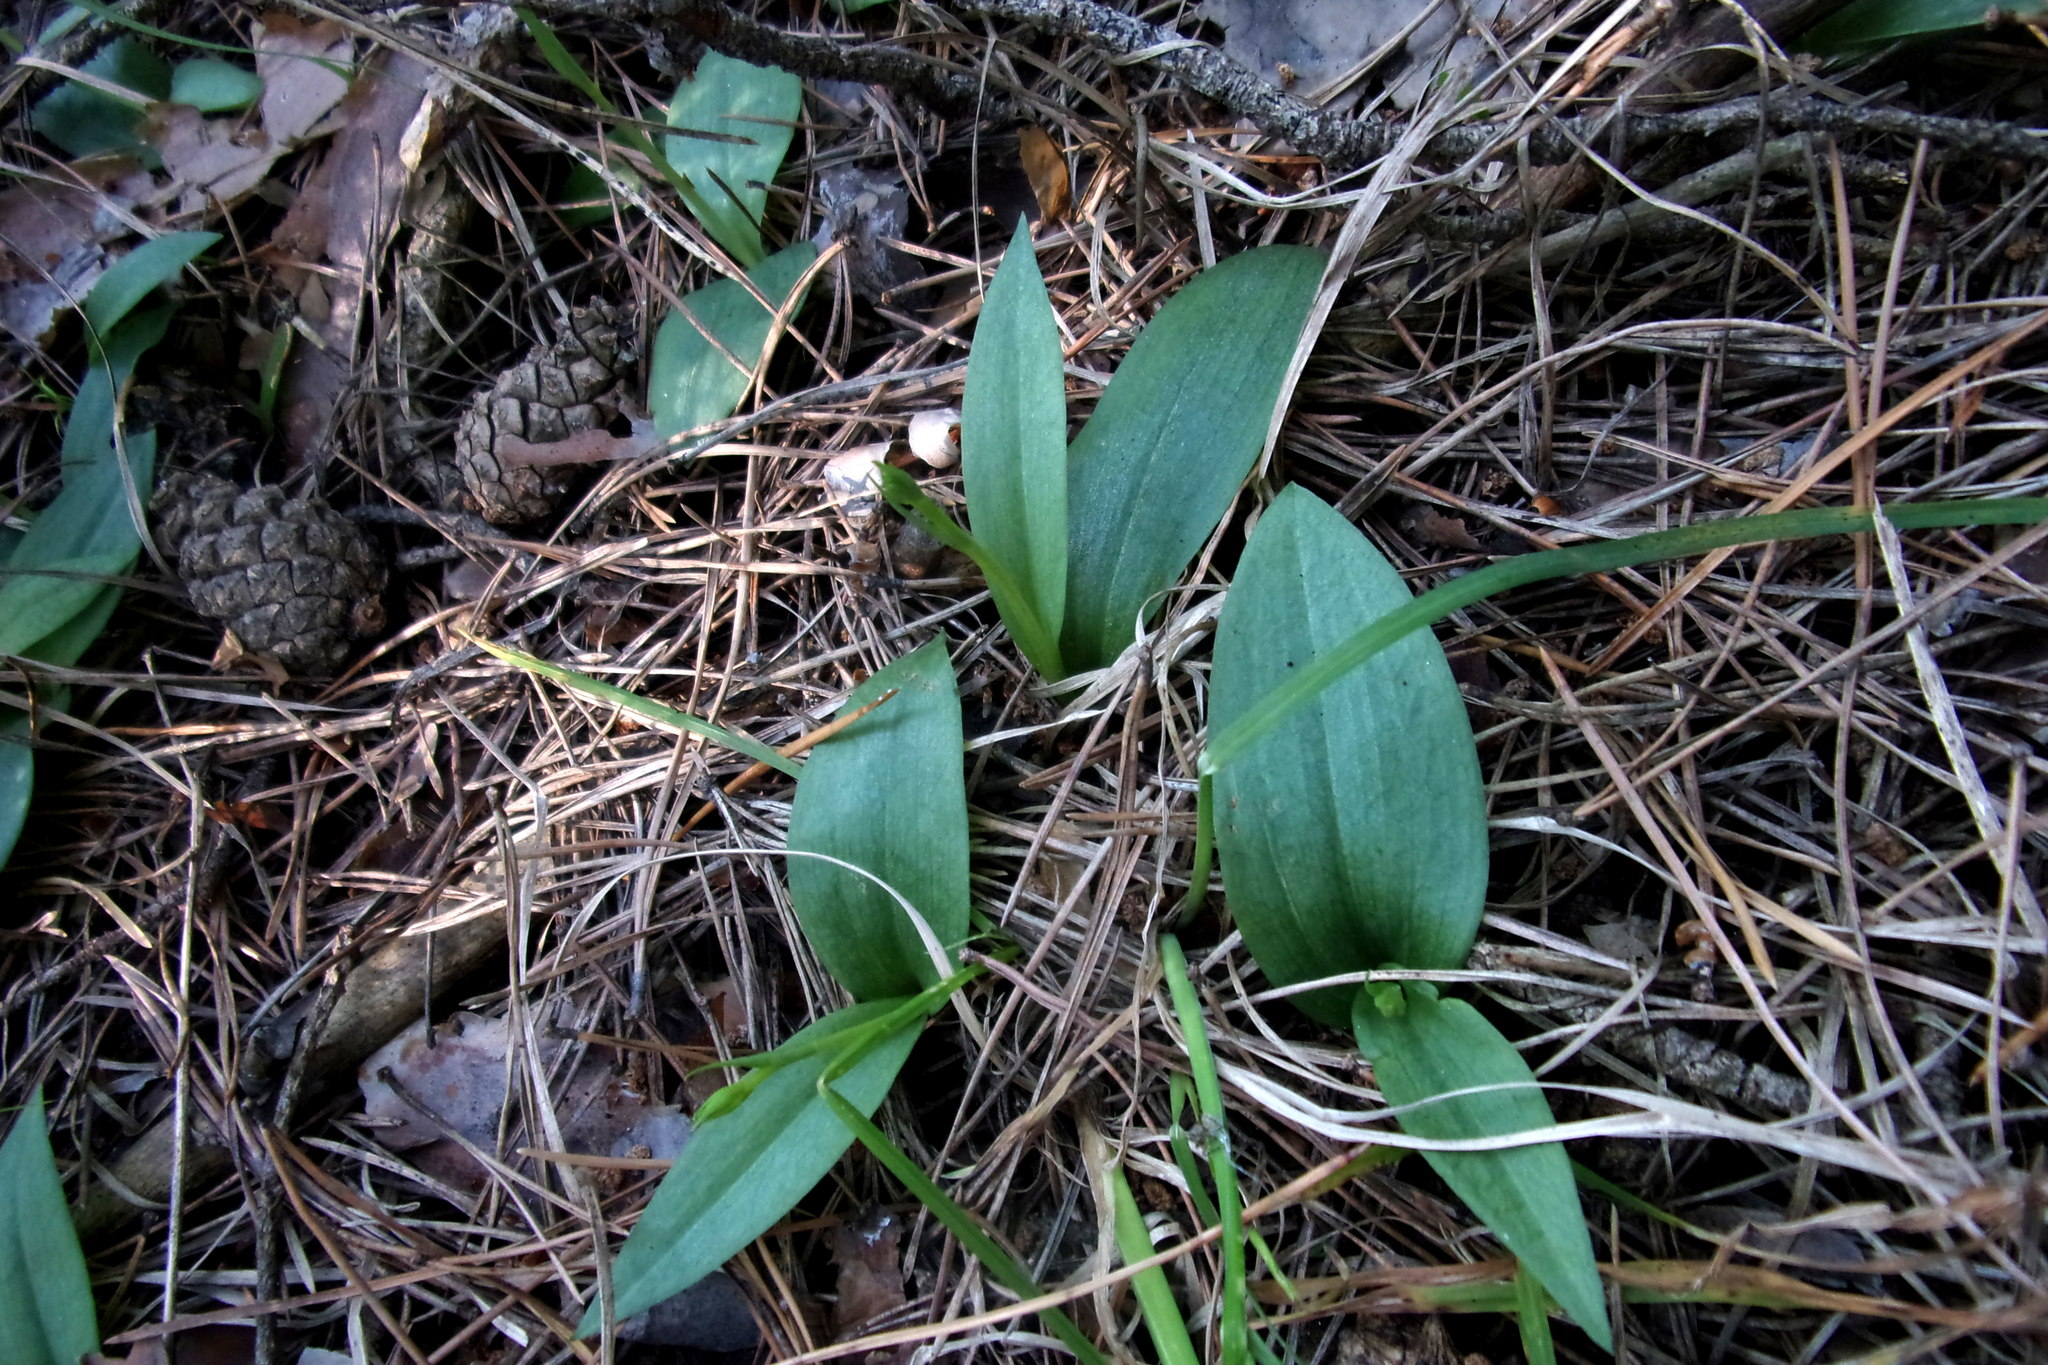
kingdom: Plantae
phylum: Tracheophyta
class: Liliopsida
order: Asparagales
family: Orchidaceae
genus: Hemipilia
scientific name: Hemipilia cucullata
